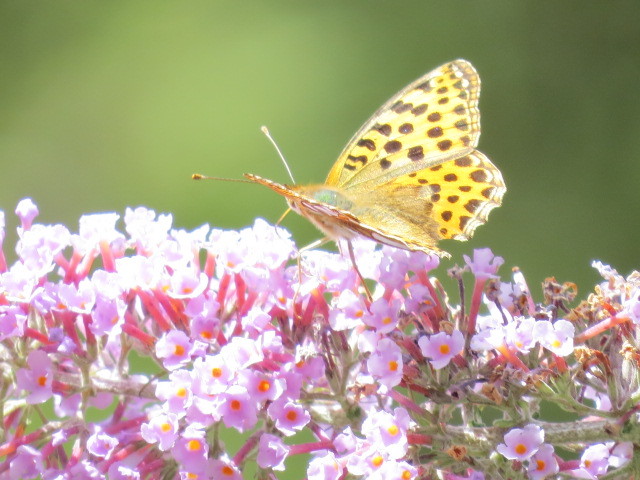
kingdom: Animalia
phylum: Arthropoda
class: Insecta
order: Lepidoptera
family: Nymphalidae
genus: Issoria
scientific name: Issoria lathonia
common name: Queen of spain fritillary
